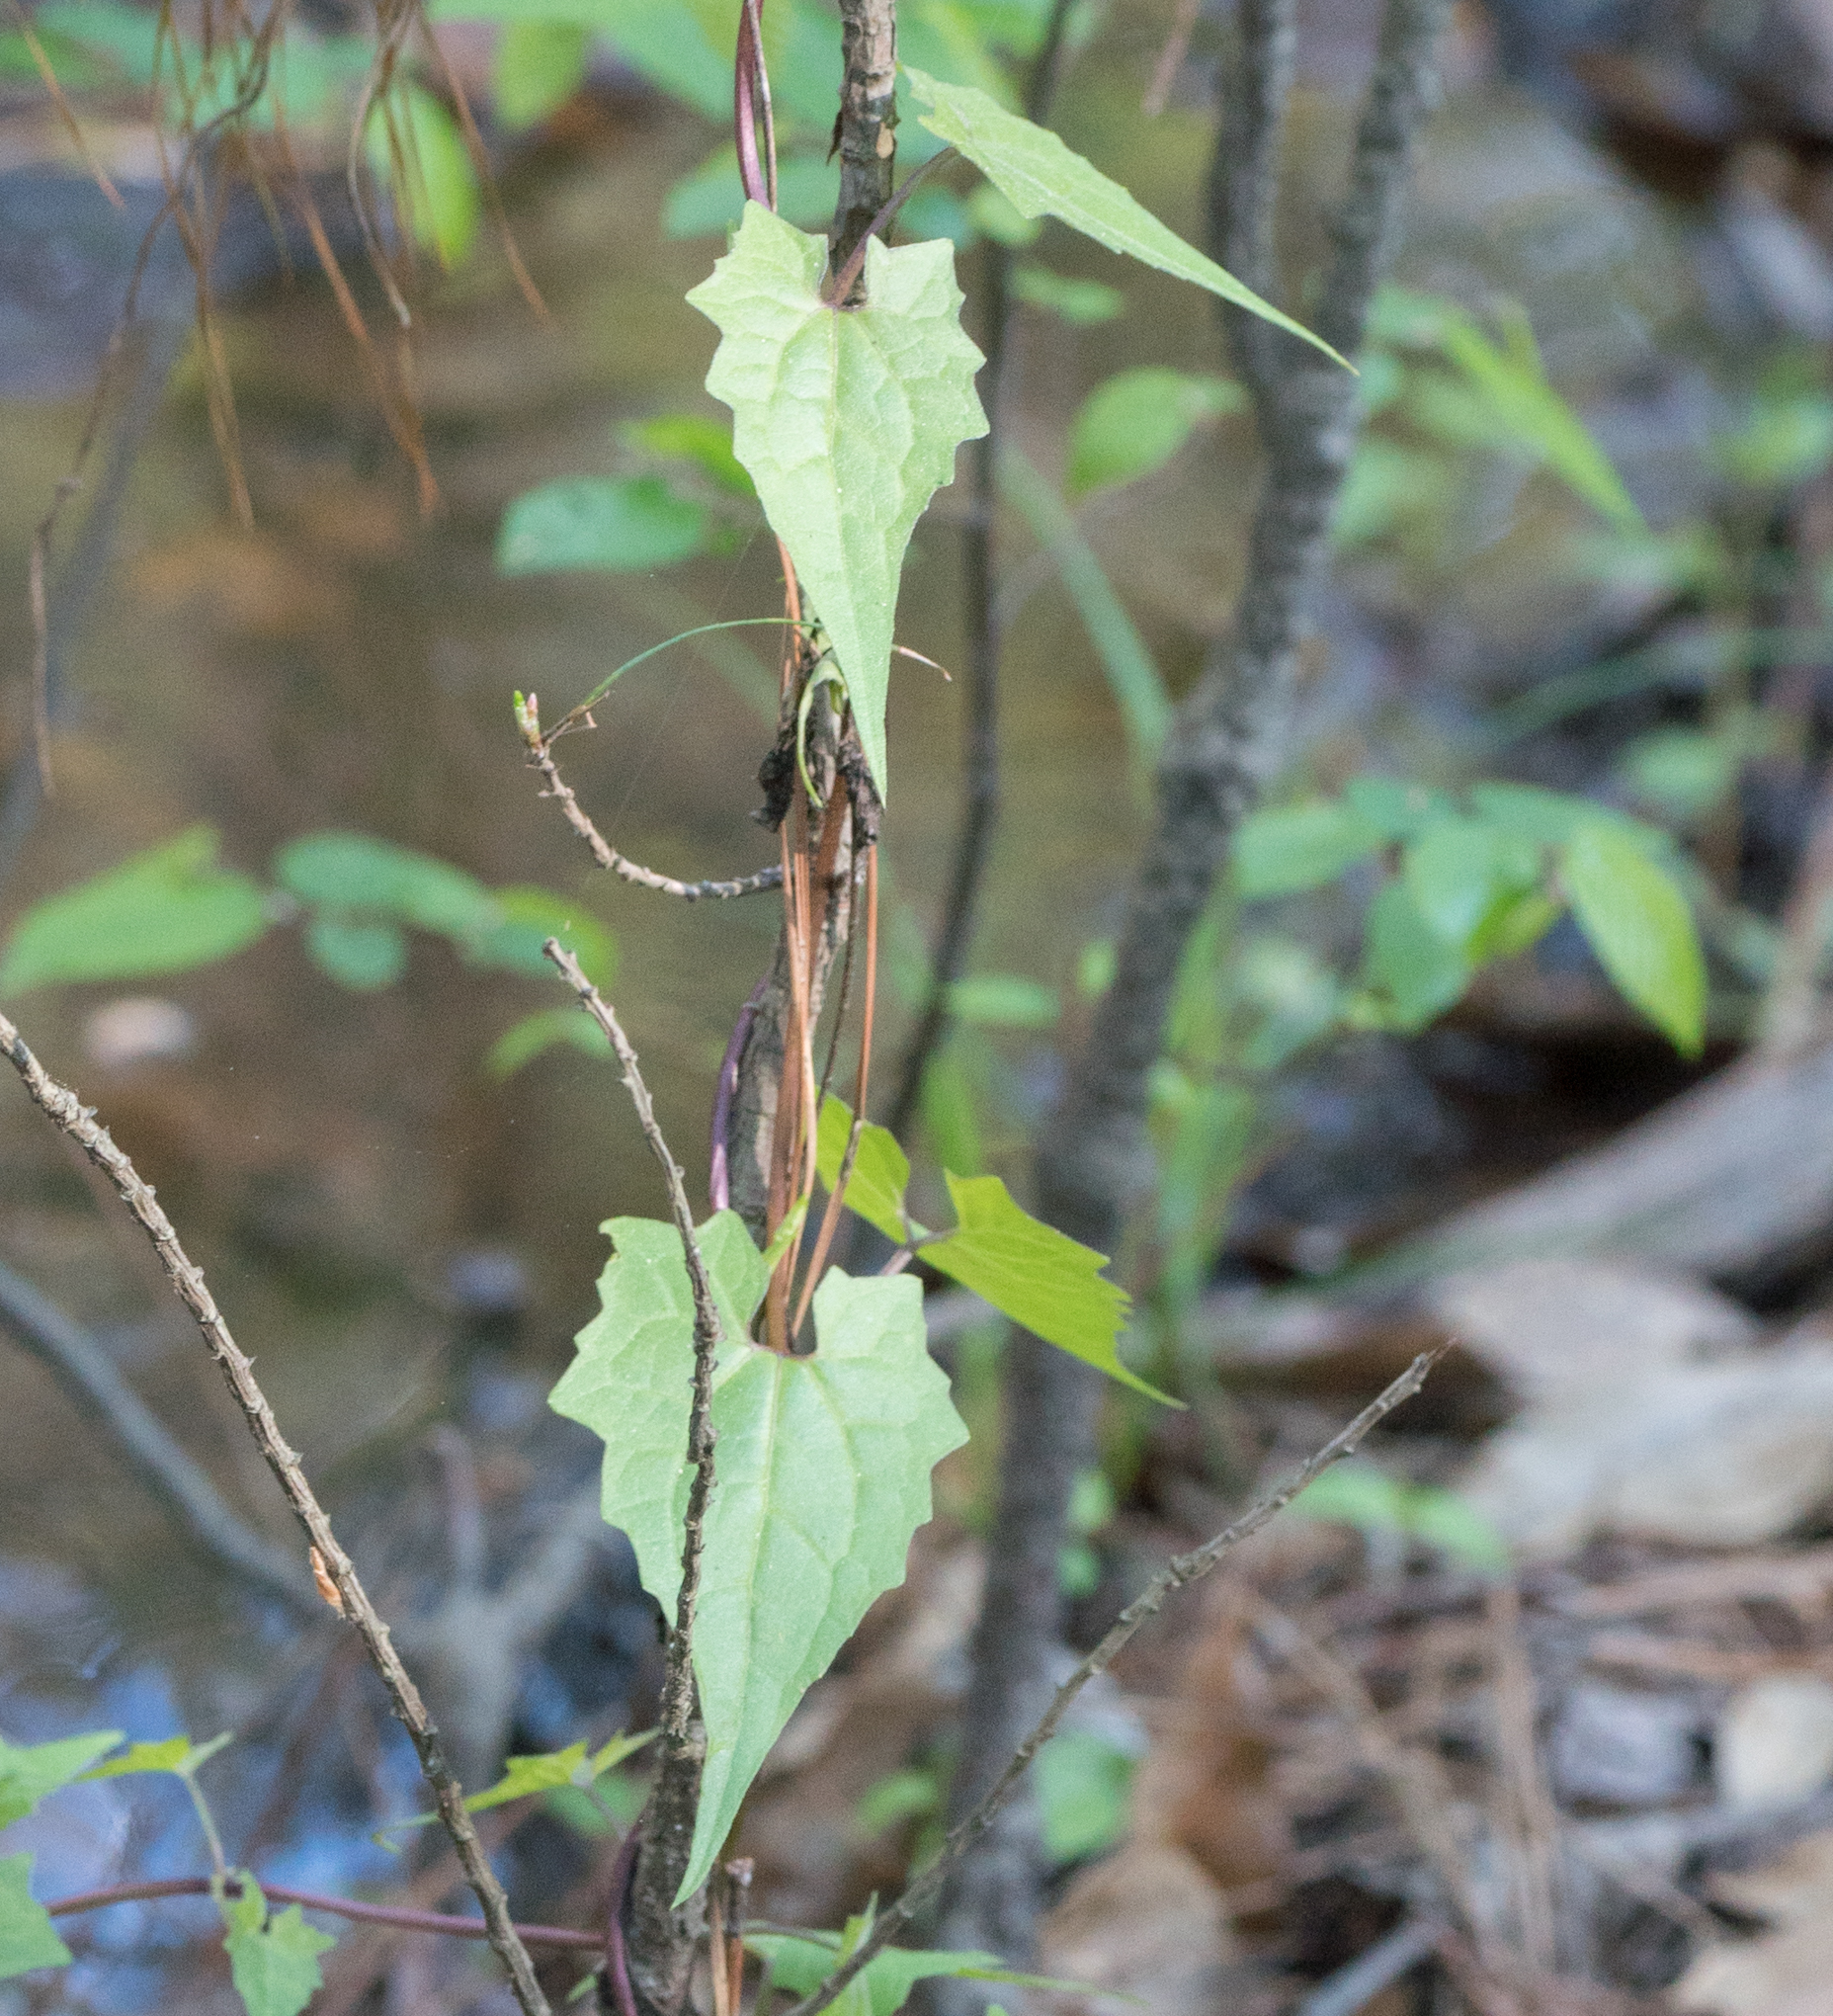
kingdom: Plantae
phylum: Tracheophyta
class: Magnoliopsida
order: Asterales
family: Asteraceae
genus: Mikania
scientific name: Mikania scandens
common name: Climbing hempvine
